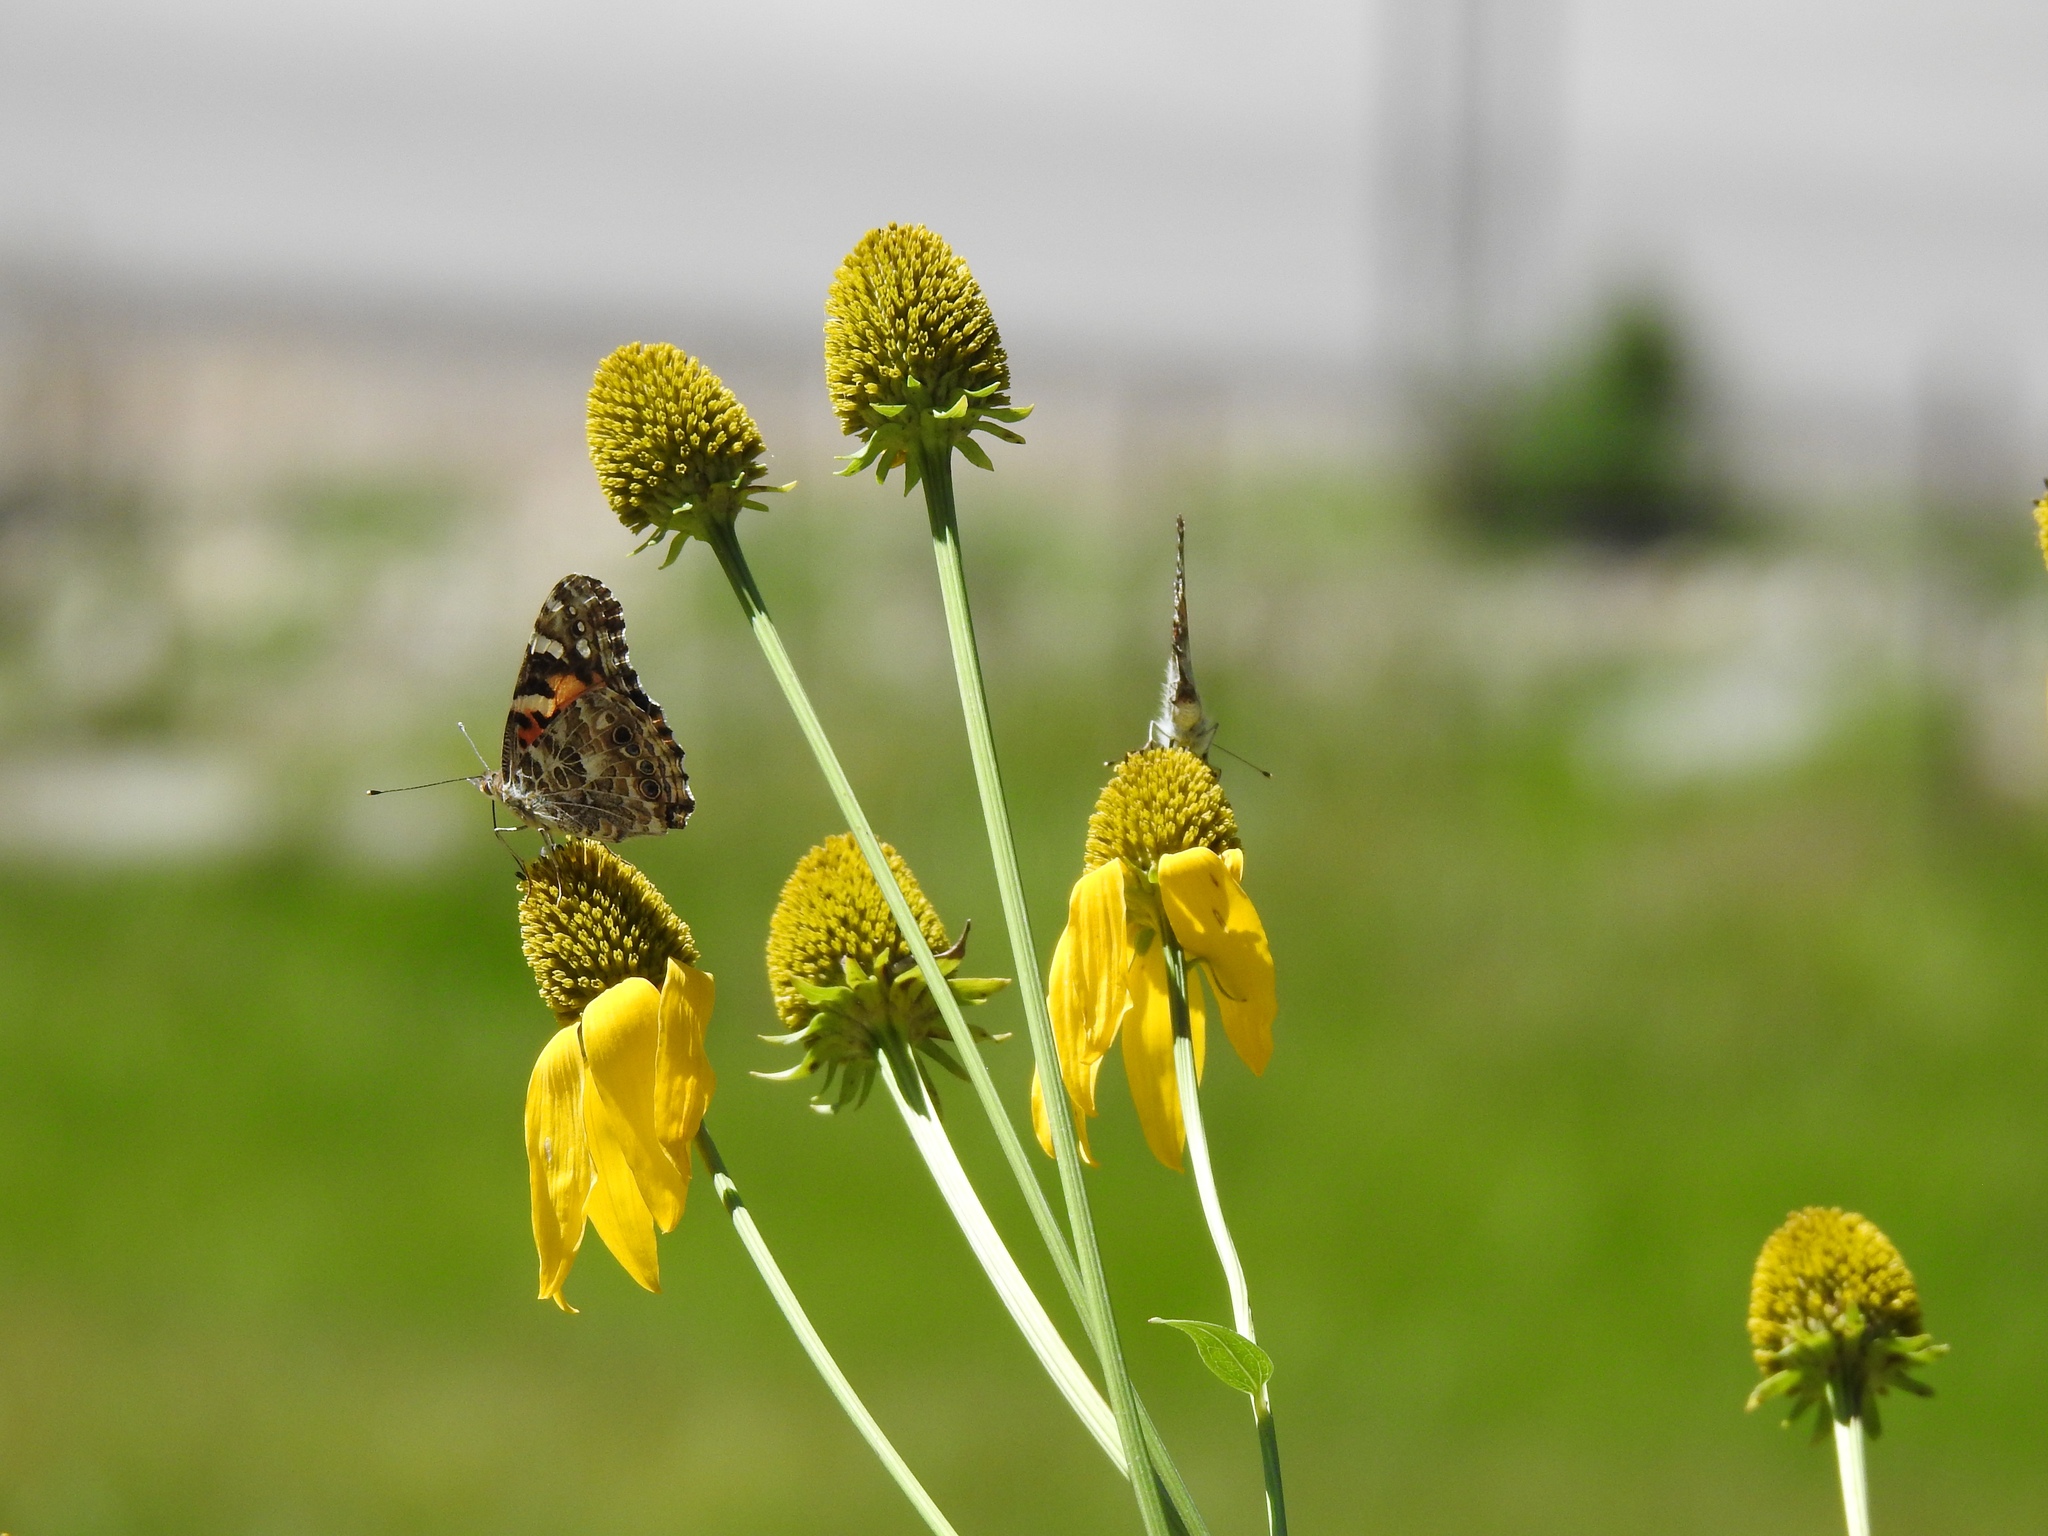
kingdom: Animalia
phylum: Arthropoda
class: Insecta
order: Lepidoptera
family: Nymphalidae
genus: Vanessa
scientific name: Vanessa cardui
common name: Painted lady
